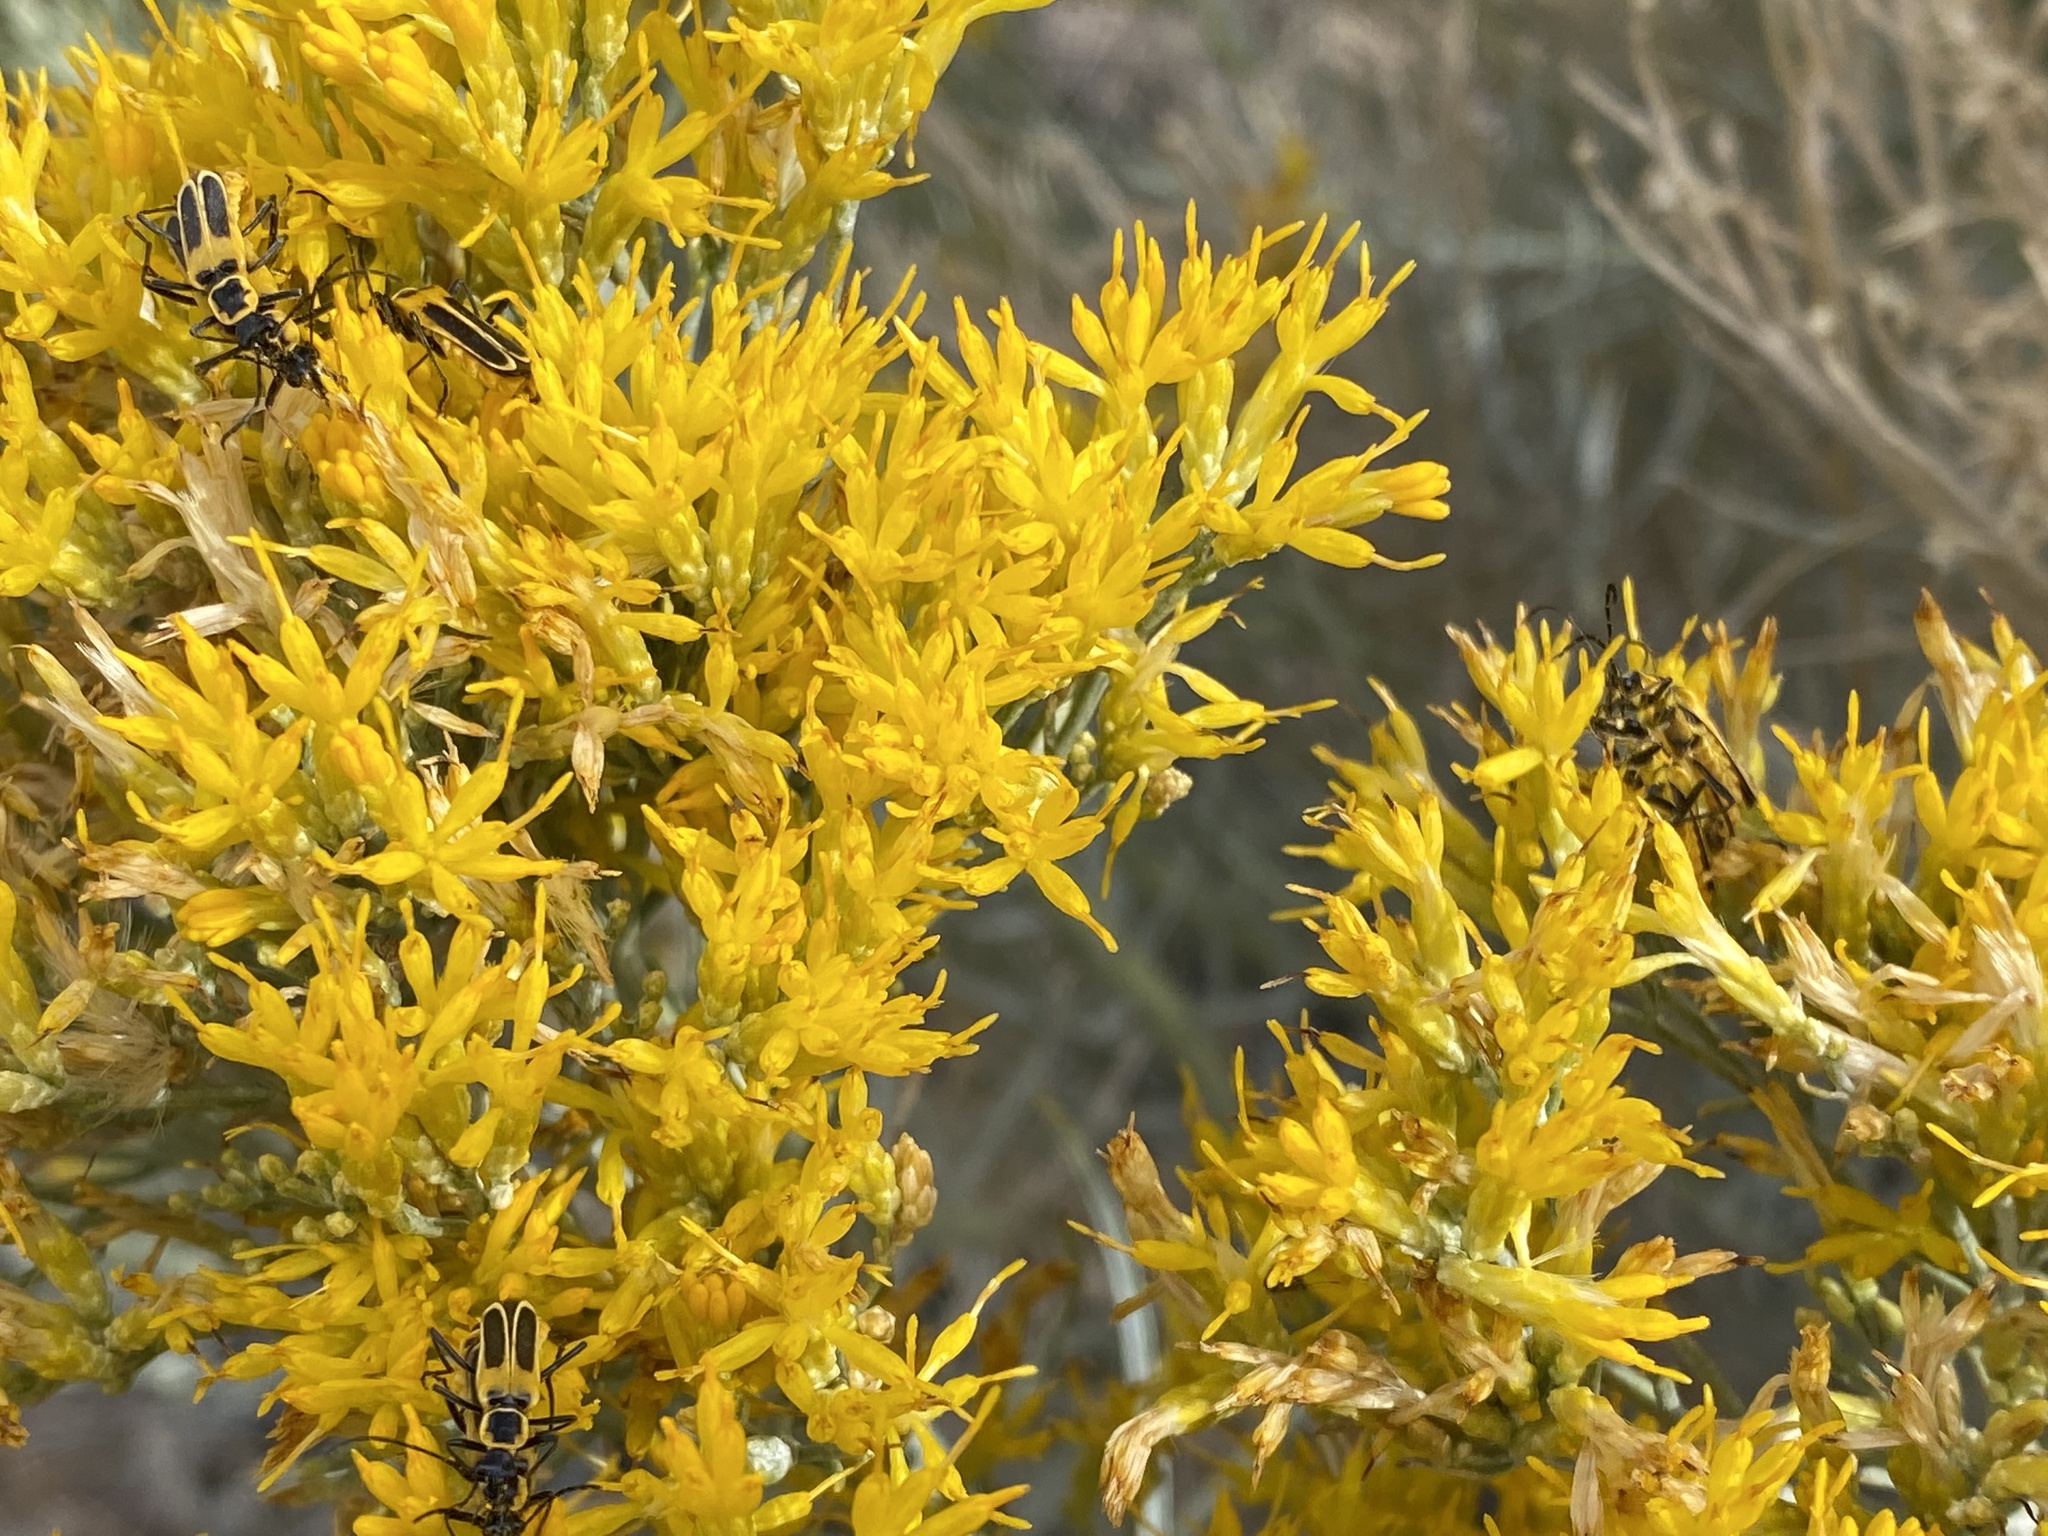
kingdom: Animalia
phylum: Arthropoda
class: Insecta
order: Coleoptera
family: Cantharidae
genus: Chauliognathus
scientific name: Chauliognathus lewisi
